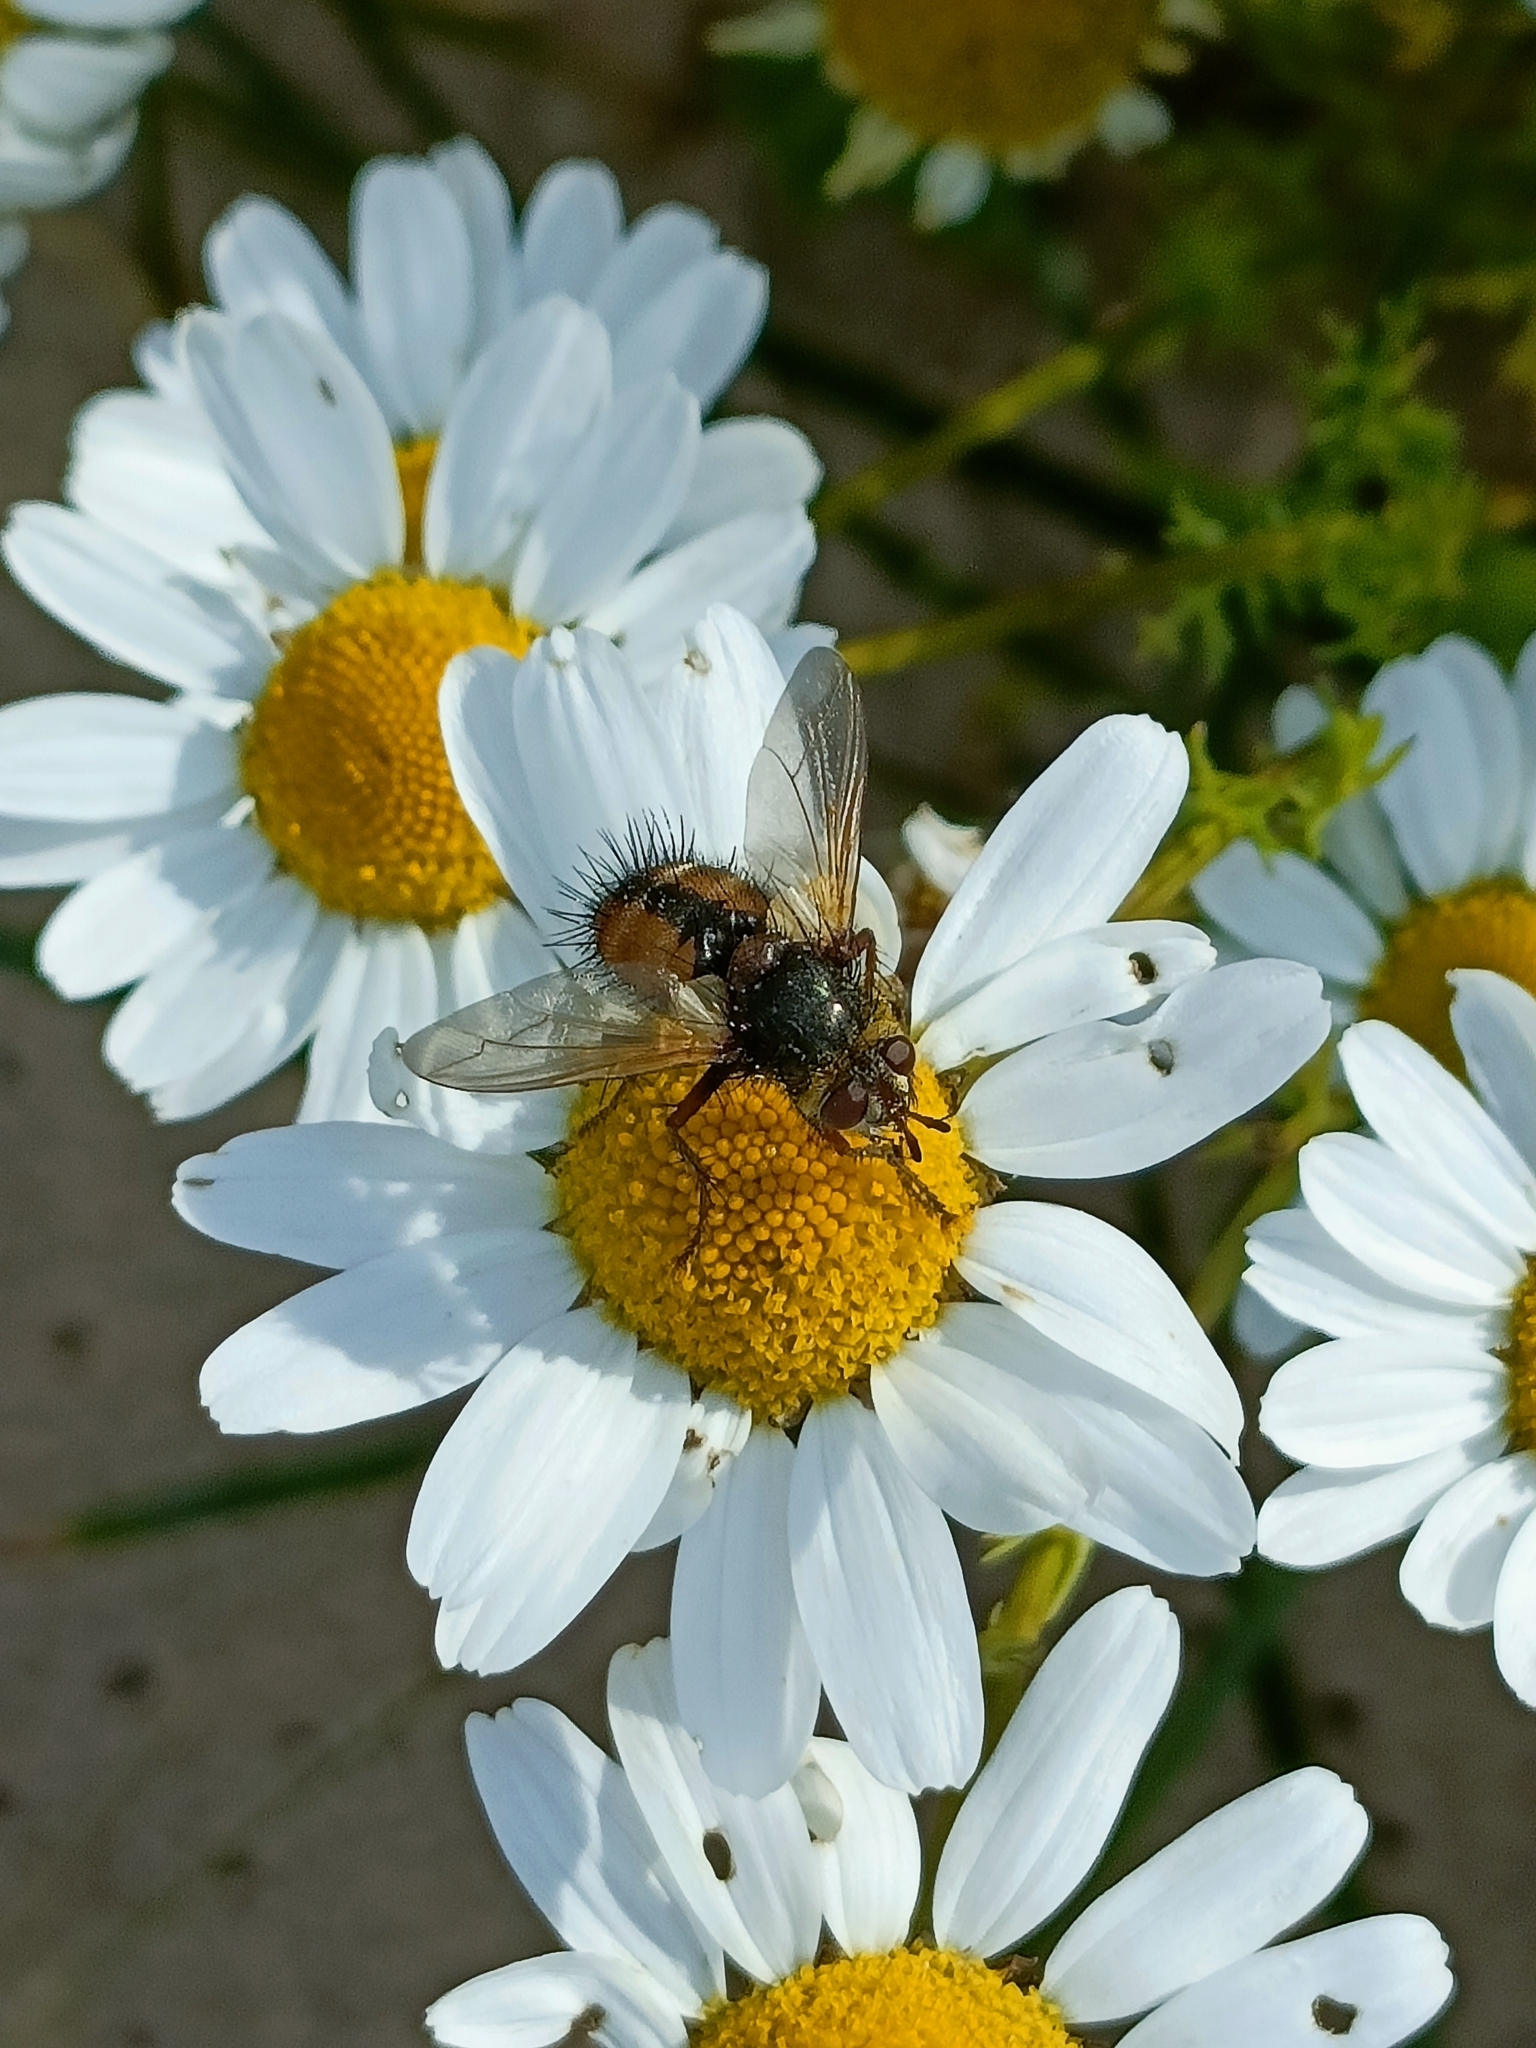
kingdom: Animalia
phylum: Arthropoda
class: Insecta
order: Diptera
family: Tachinidae
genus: Tachina
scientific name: Tachina fera
